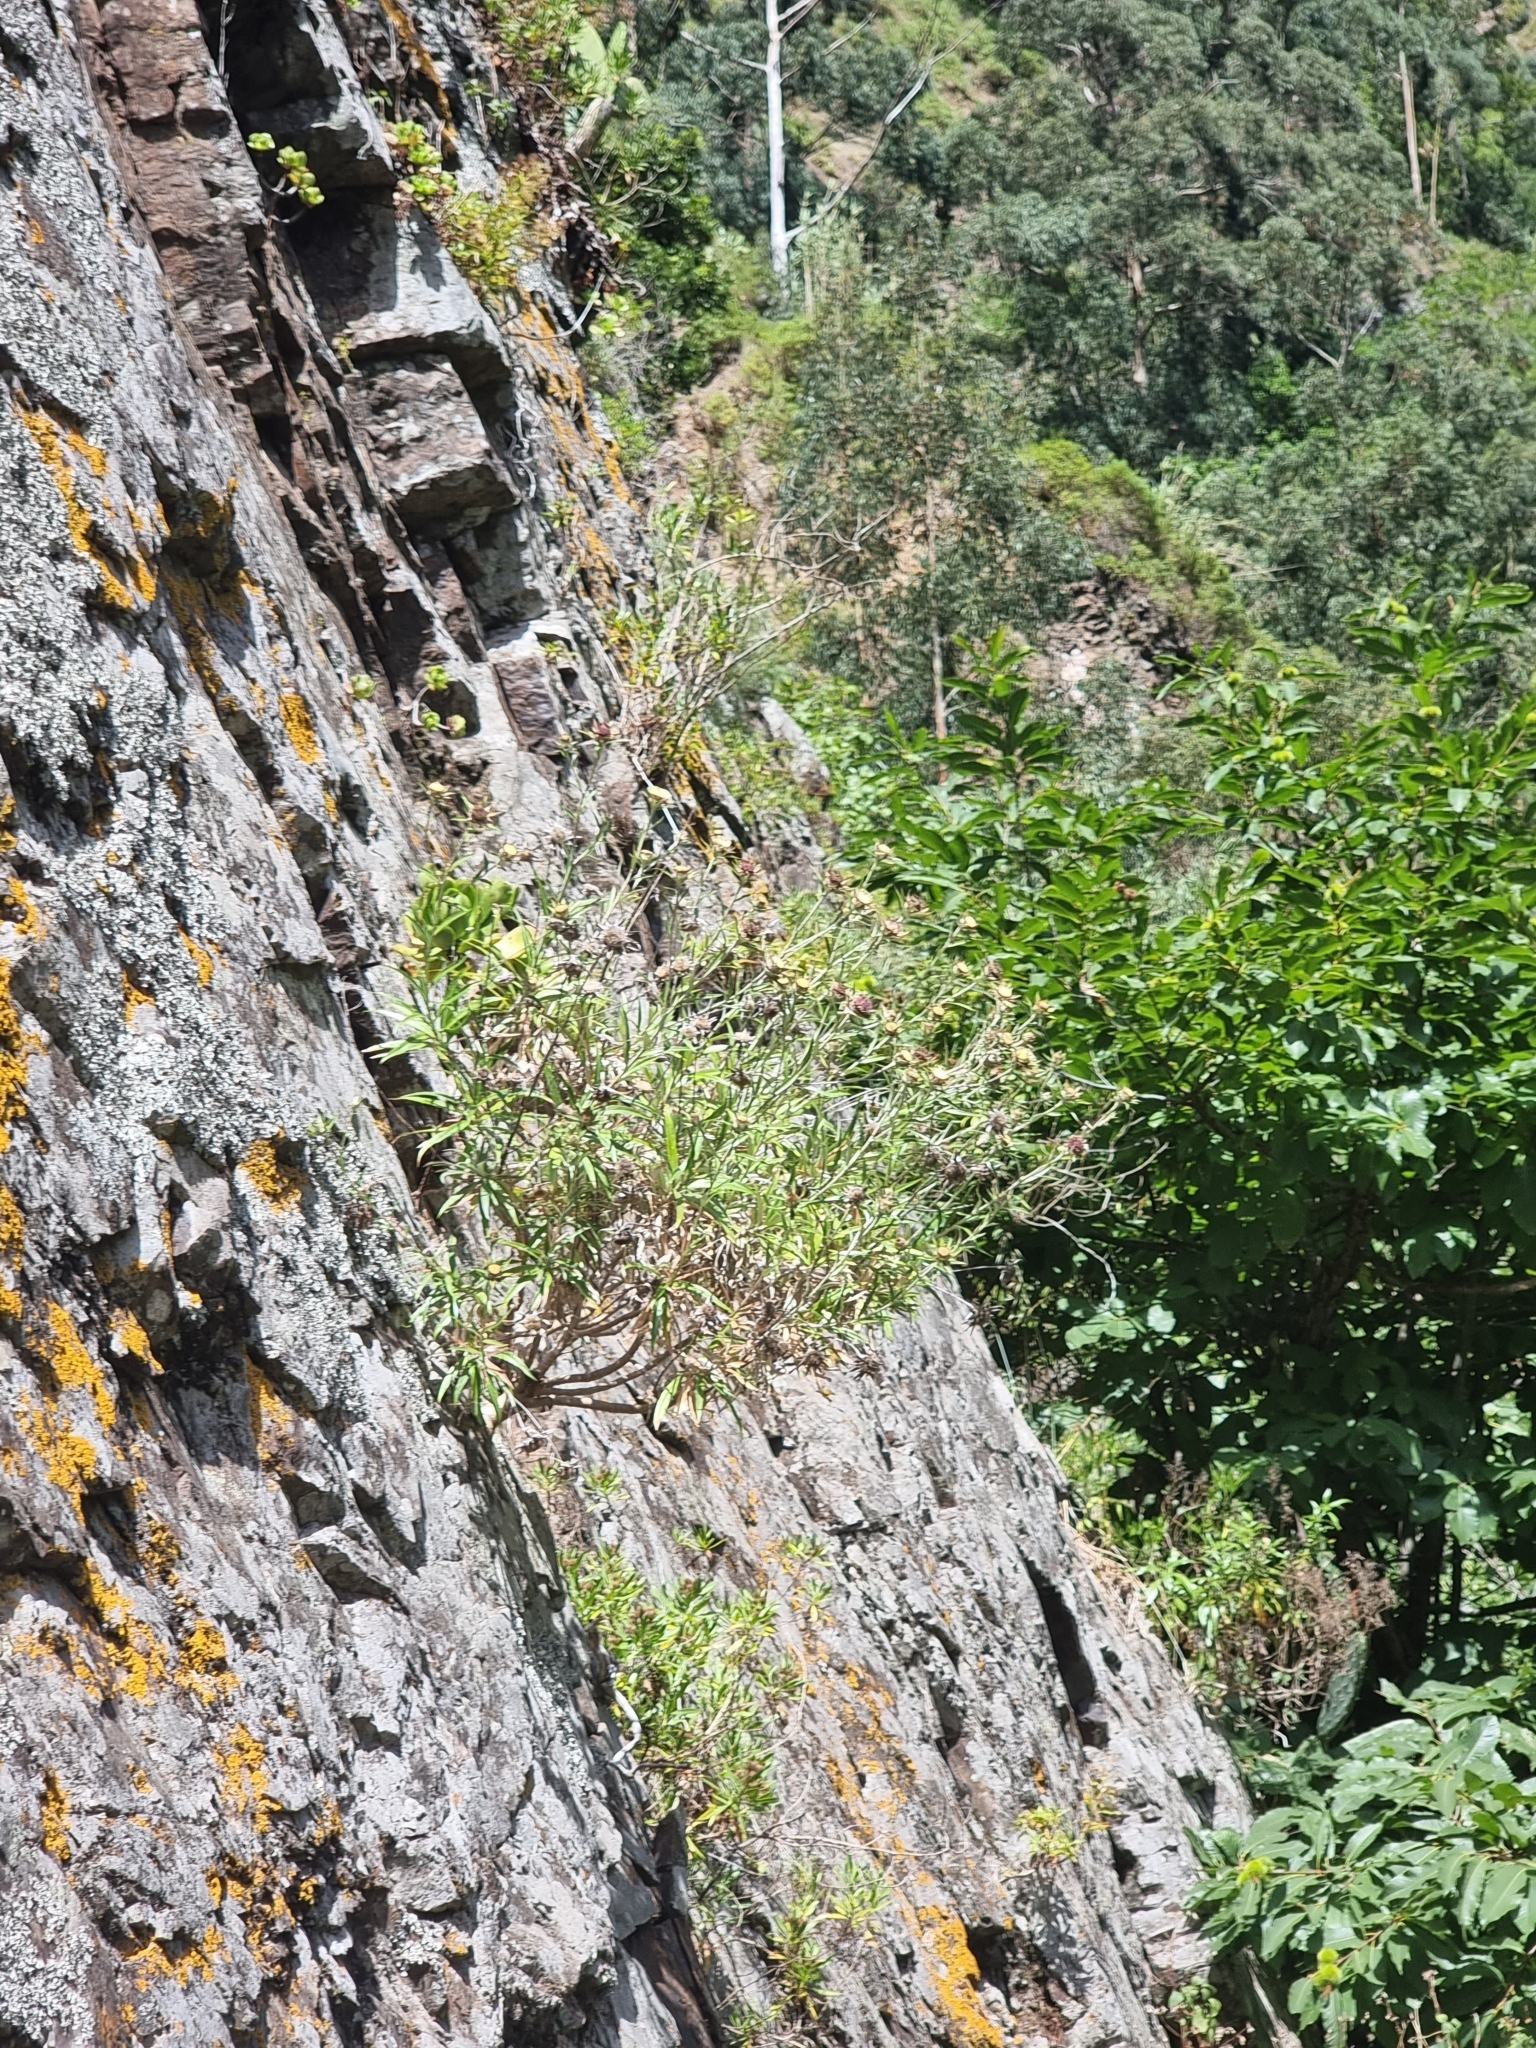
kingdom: Plantae
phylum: Tracheophyta
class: Magnoliopsida
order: Asterales
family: Asteraceae
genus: Carlina
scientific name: Carlina salicifolia
